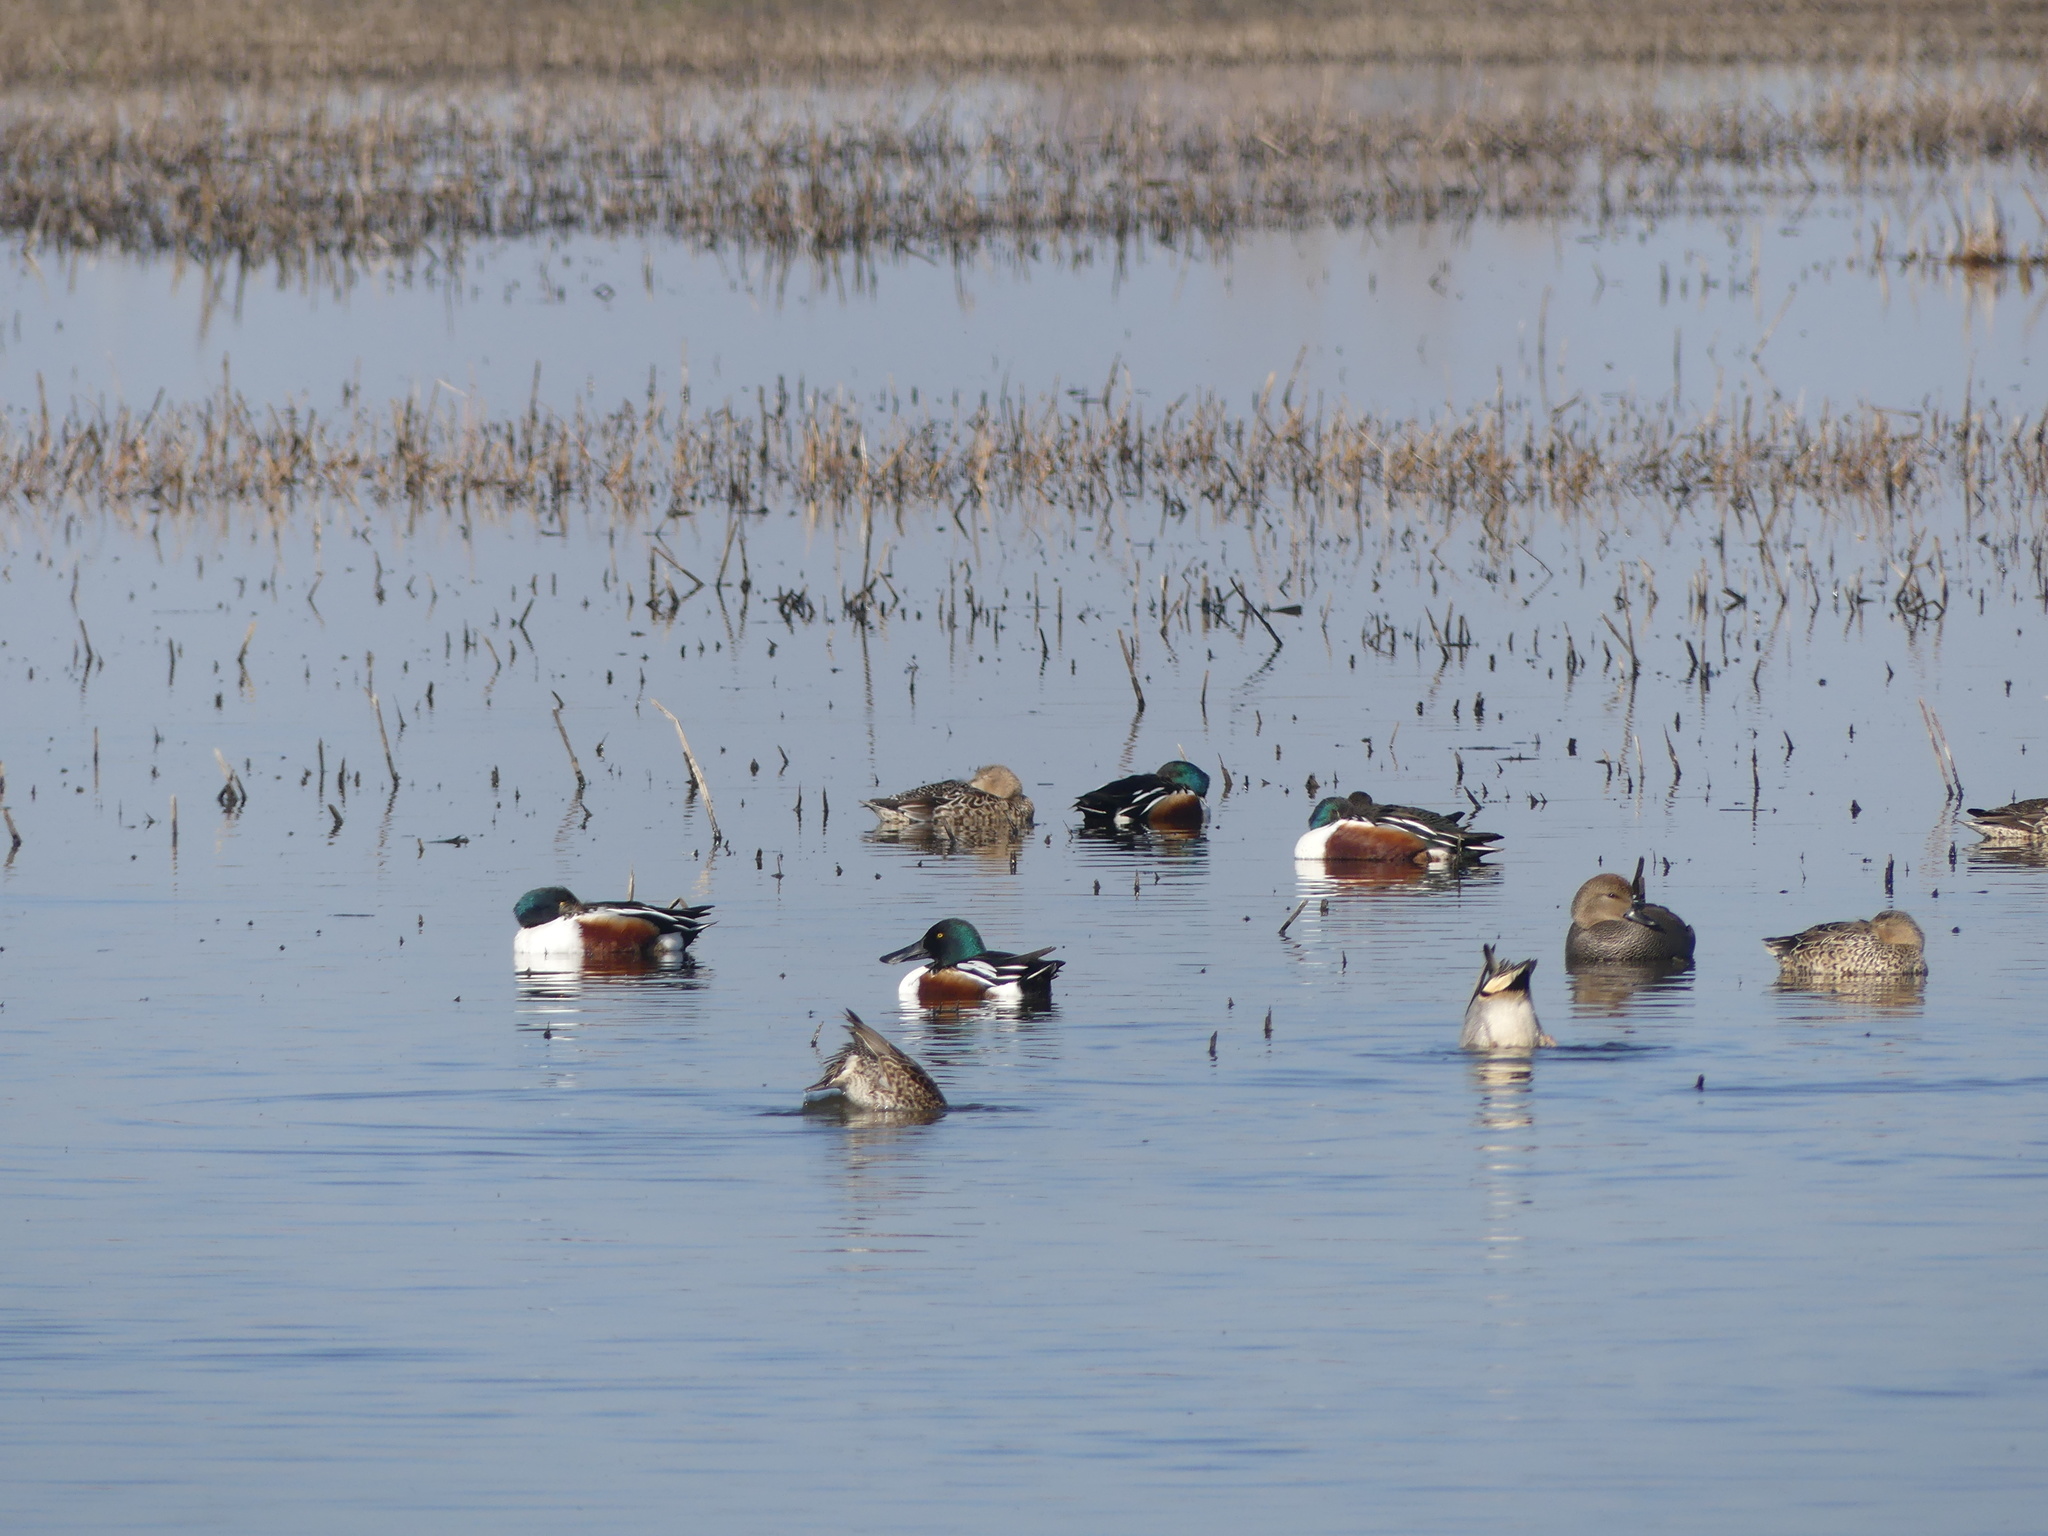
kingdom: Animalia
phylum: Chordata
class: Aves
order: Anseriformes
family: Anatidae
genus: Spatula
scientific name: Spatula clypeata
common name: Northern shoveler
